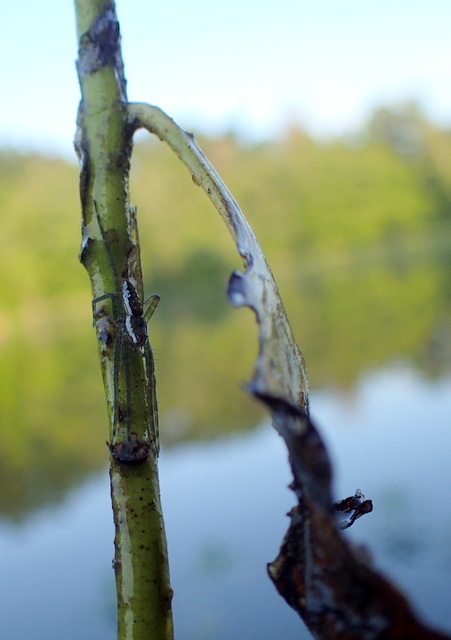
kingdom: Animalia
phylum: Arthropoda
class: Arachnida
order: Araneae
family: Pisauridae
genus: Dolomedes
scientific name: Dolomedes triton
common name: Six-spotted fishing spider
